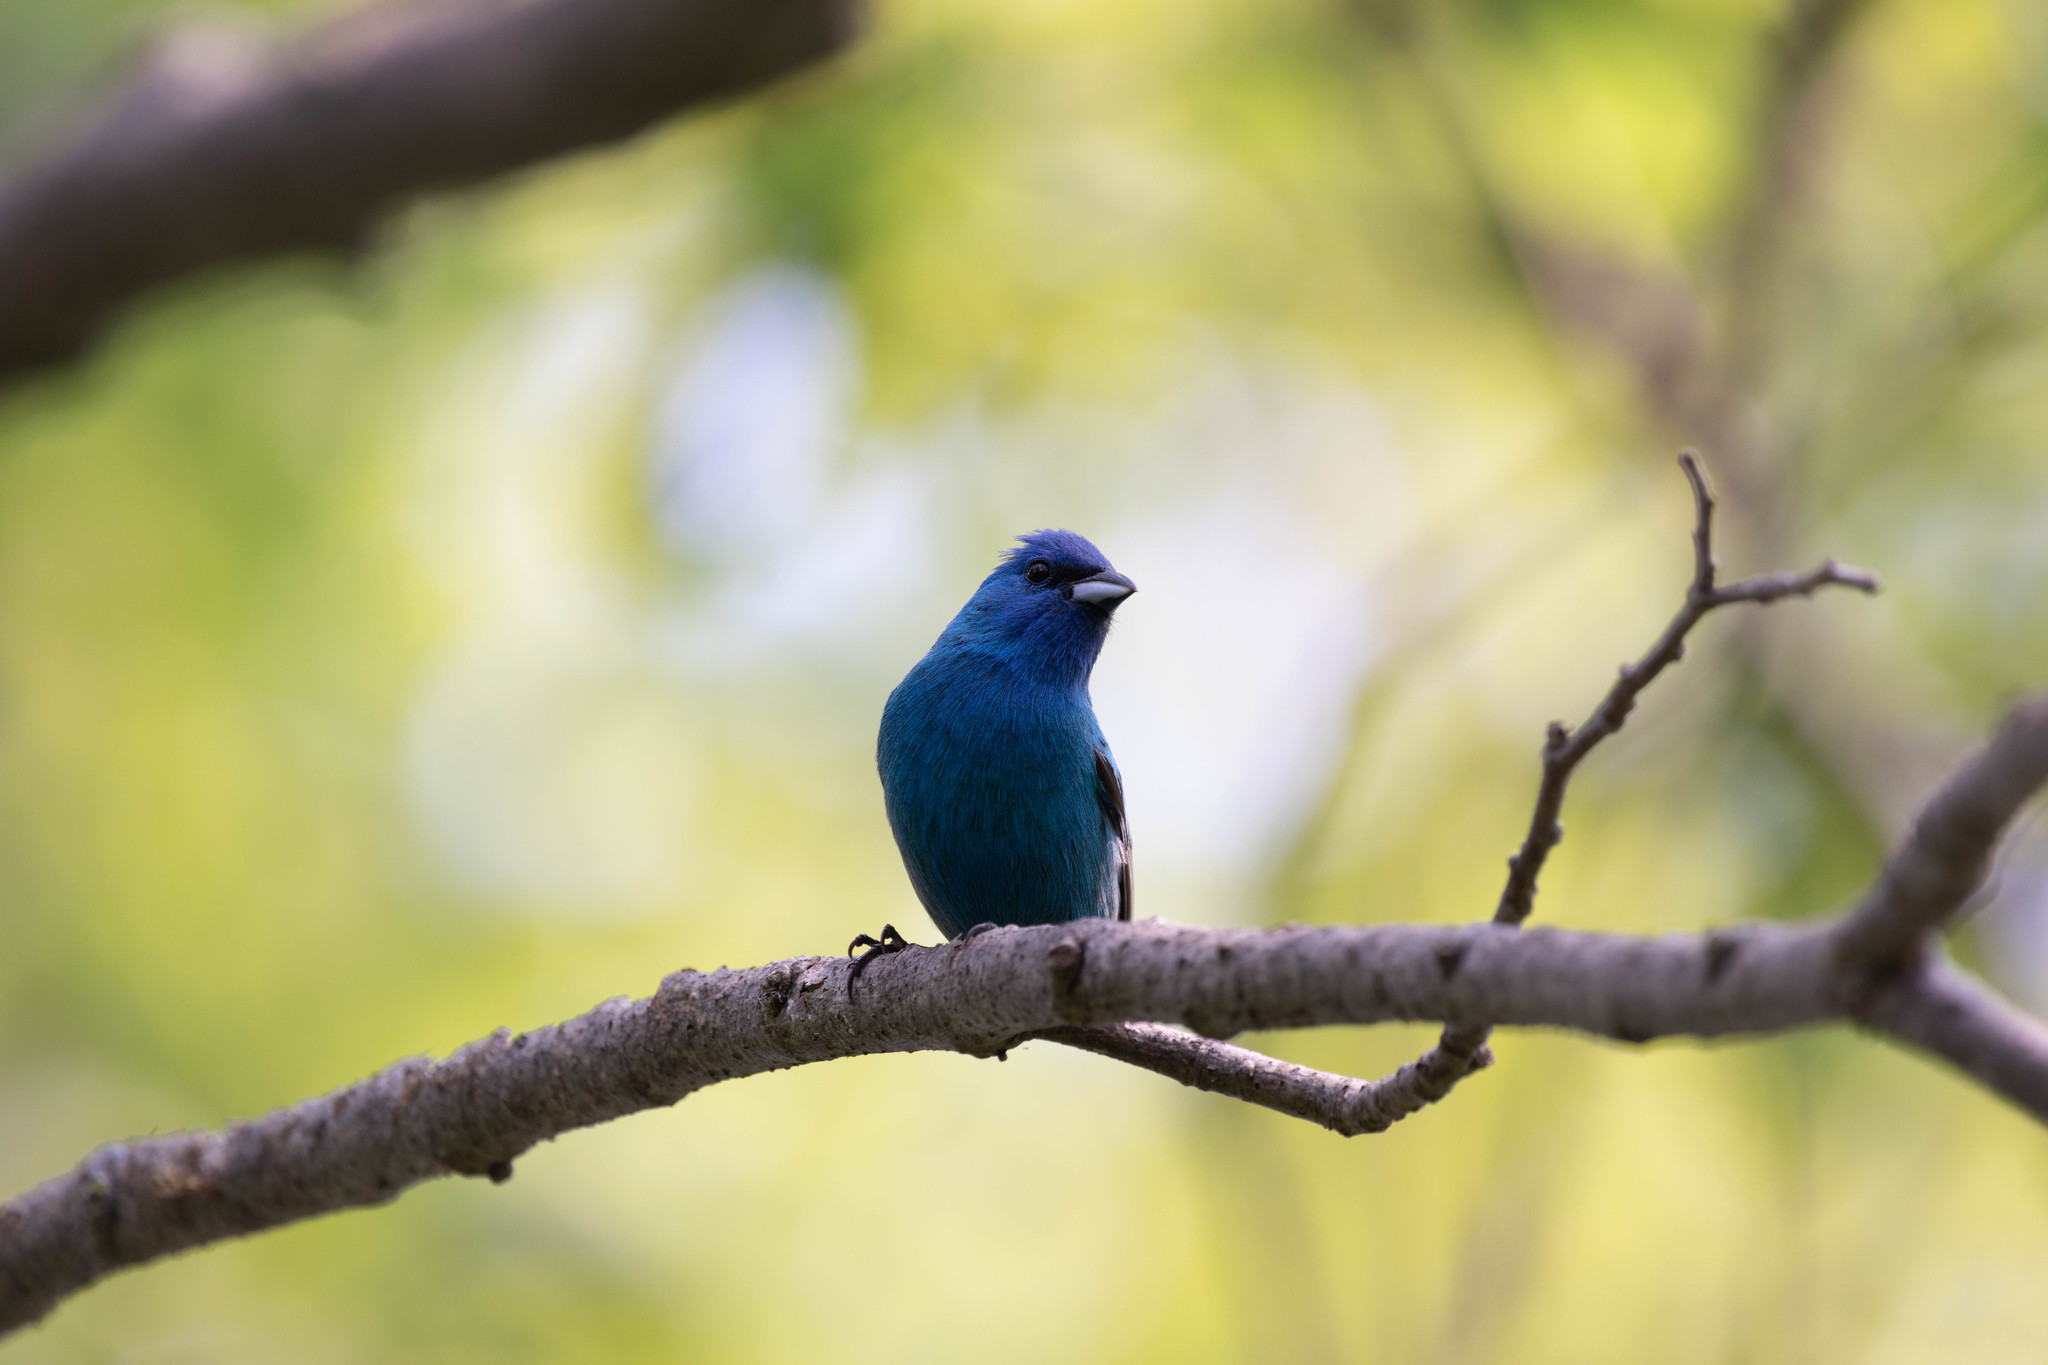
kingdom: Animalia
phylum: Chordata
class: Aves
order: Passeriformes
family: Cardinalidae
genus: Passerina
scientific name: Passerina cyanea
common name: Indigo bunting
